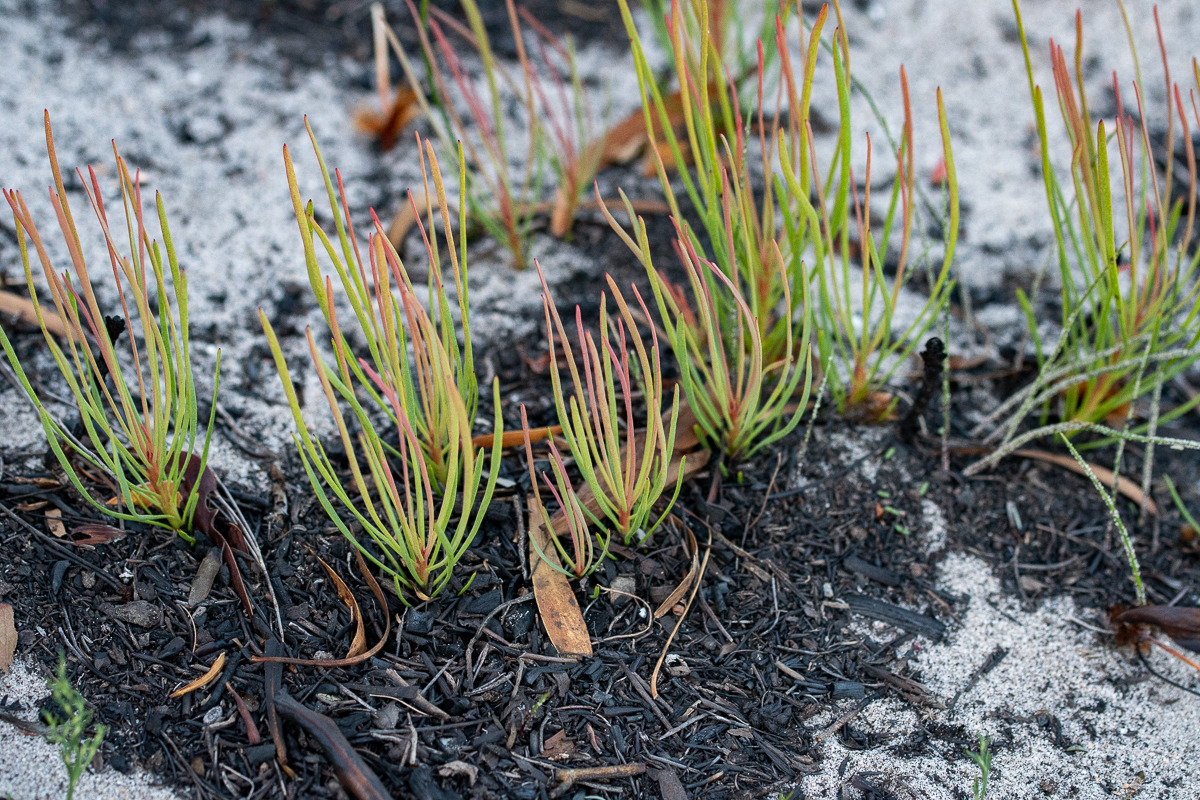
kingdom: Plantae
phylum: Tracheophyta
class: Magnoliopsida
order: Proteales
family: Proteaceae
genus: Protea
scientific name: Protea angustata
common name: Kleinmond sugarbush
